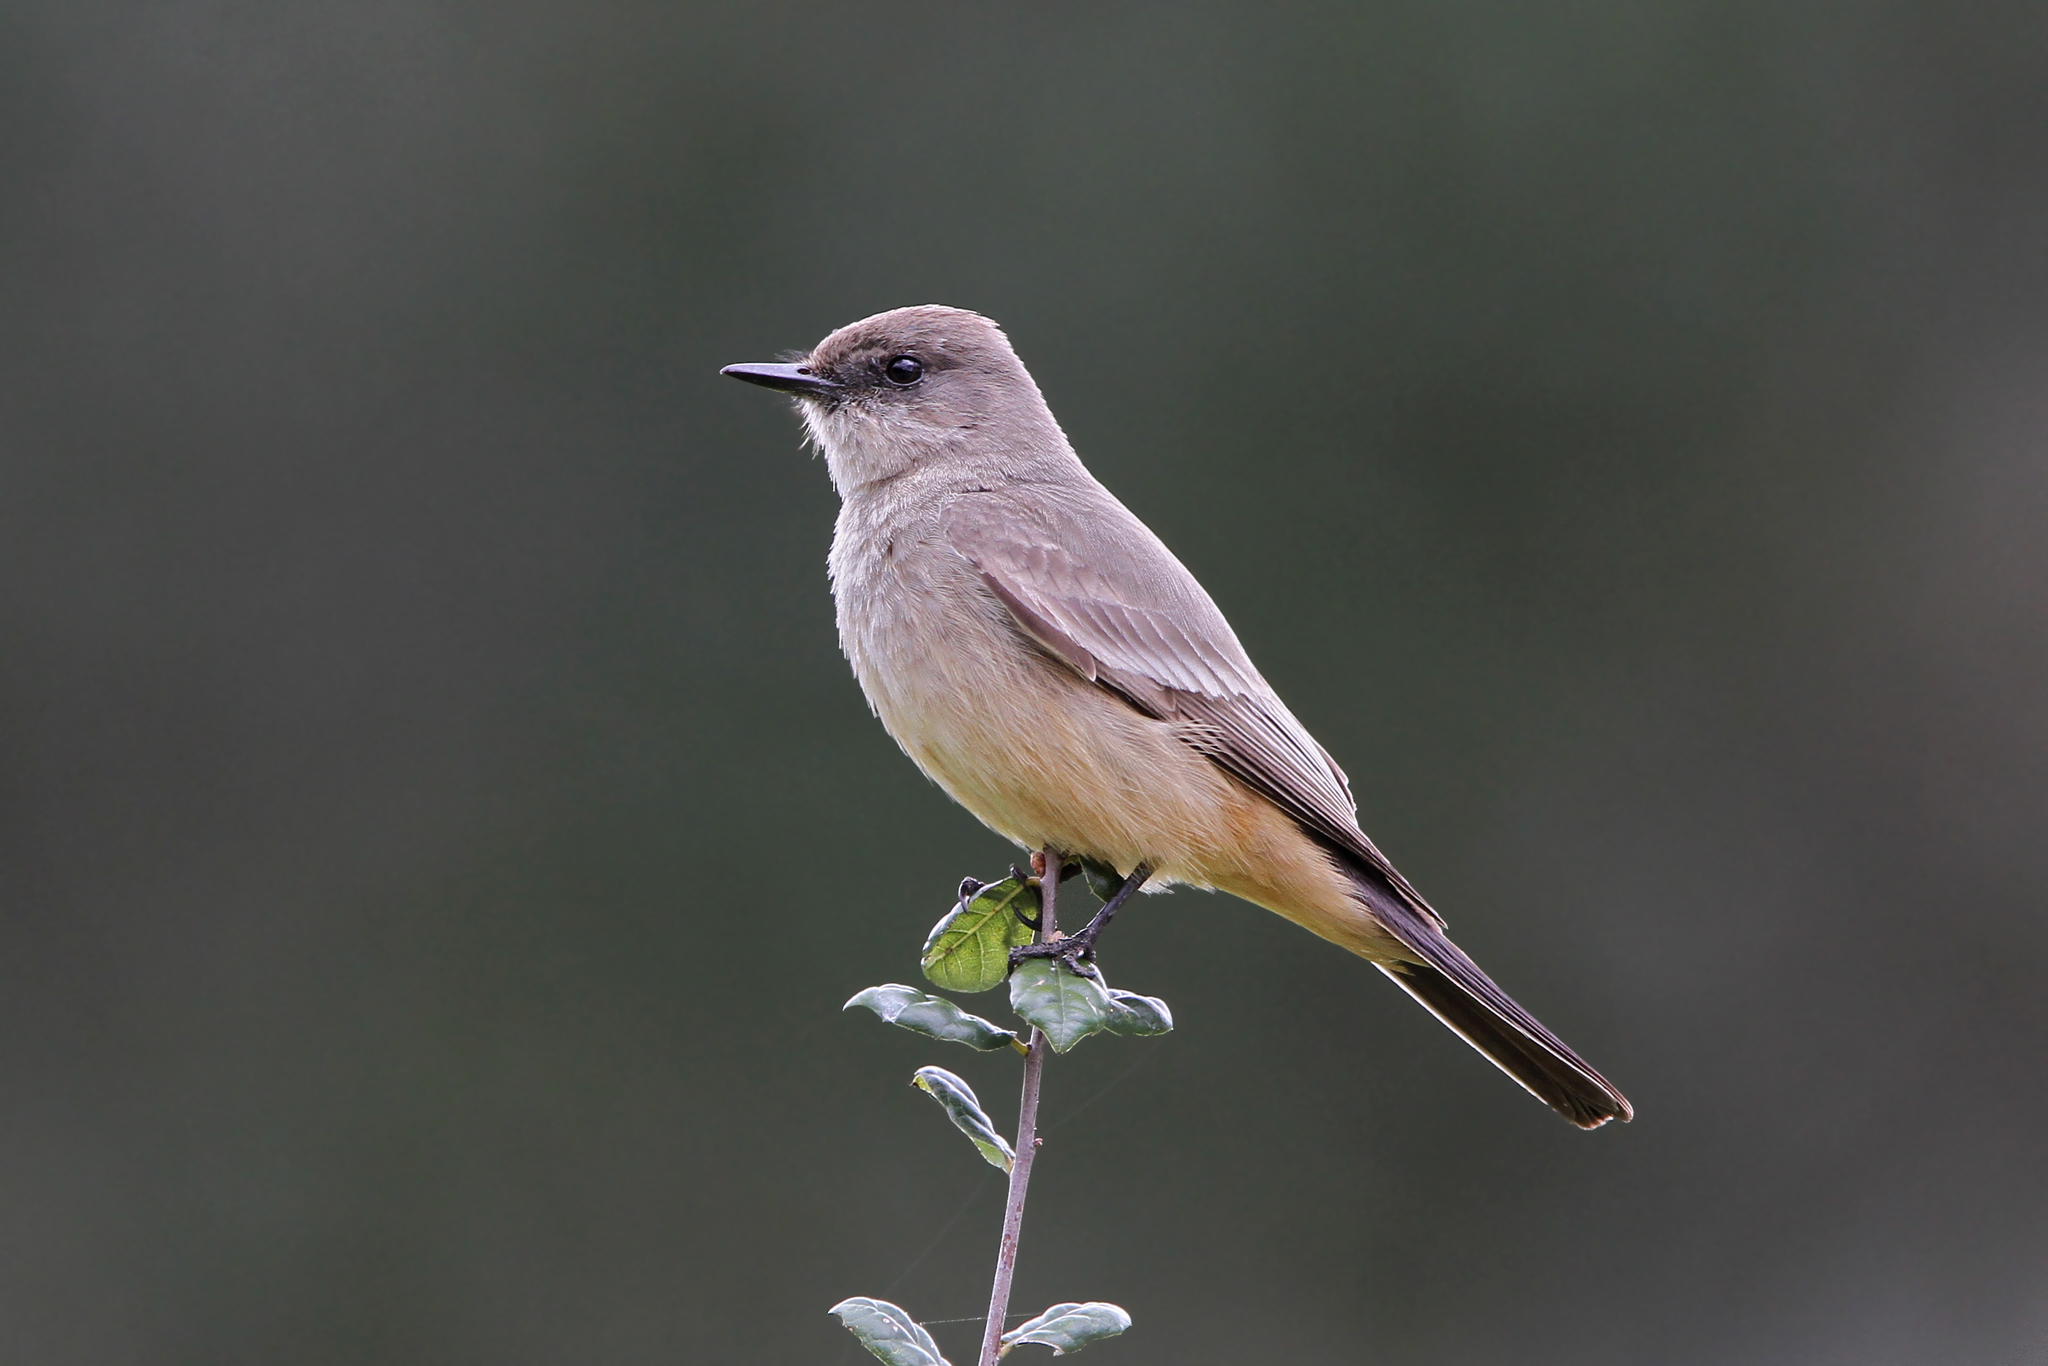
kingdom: Animalia
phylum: Chordata
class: Aves
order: Passeriformes
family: Tyrannidae
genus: Sayornis
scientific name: Sayornis saya
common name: Say's phoebe
